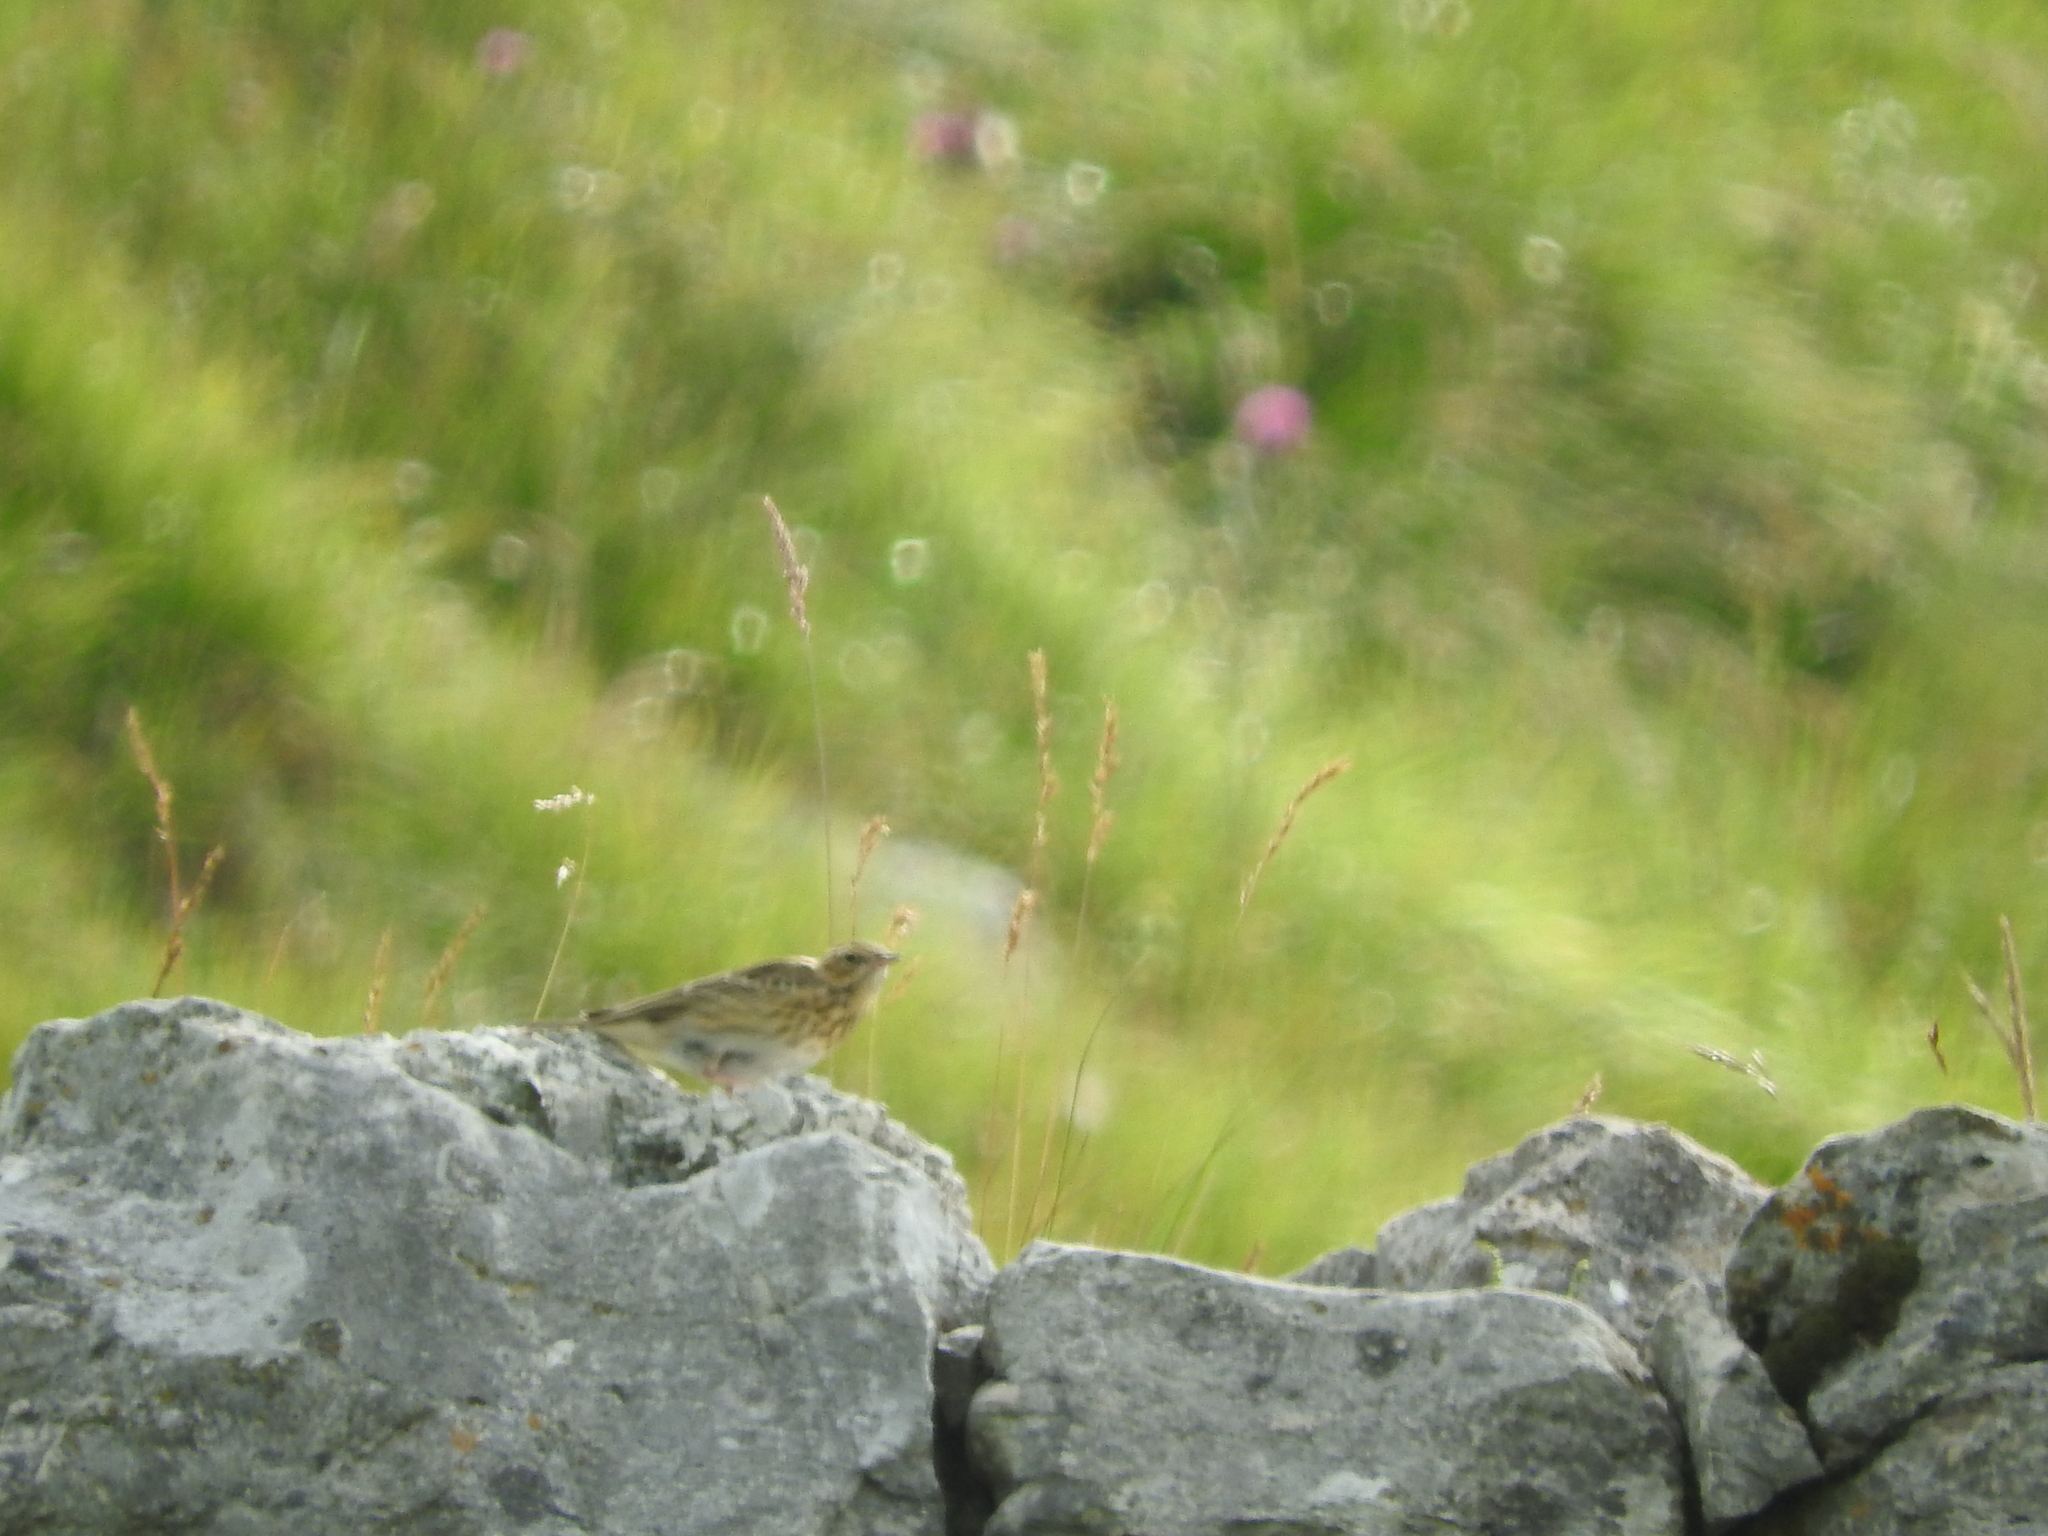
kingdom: Animalia
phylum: Chordata
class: Aves
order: Passeriformes
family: Motacillidae
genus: Anthus
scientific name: Anthus trivialis
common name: Tree pipit
